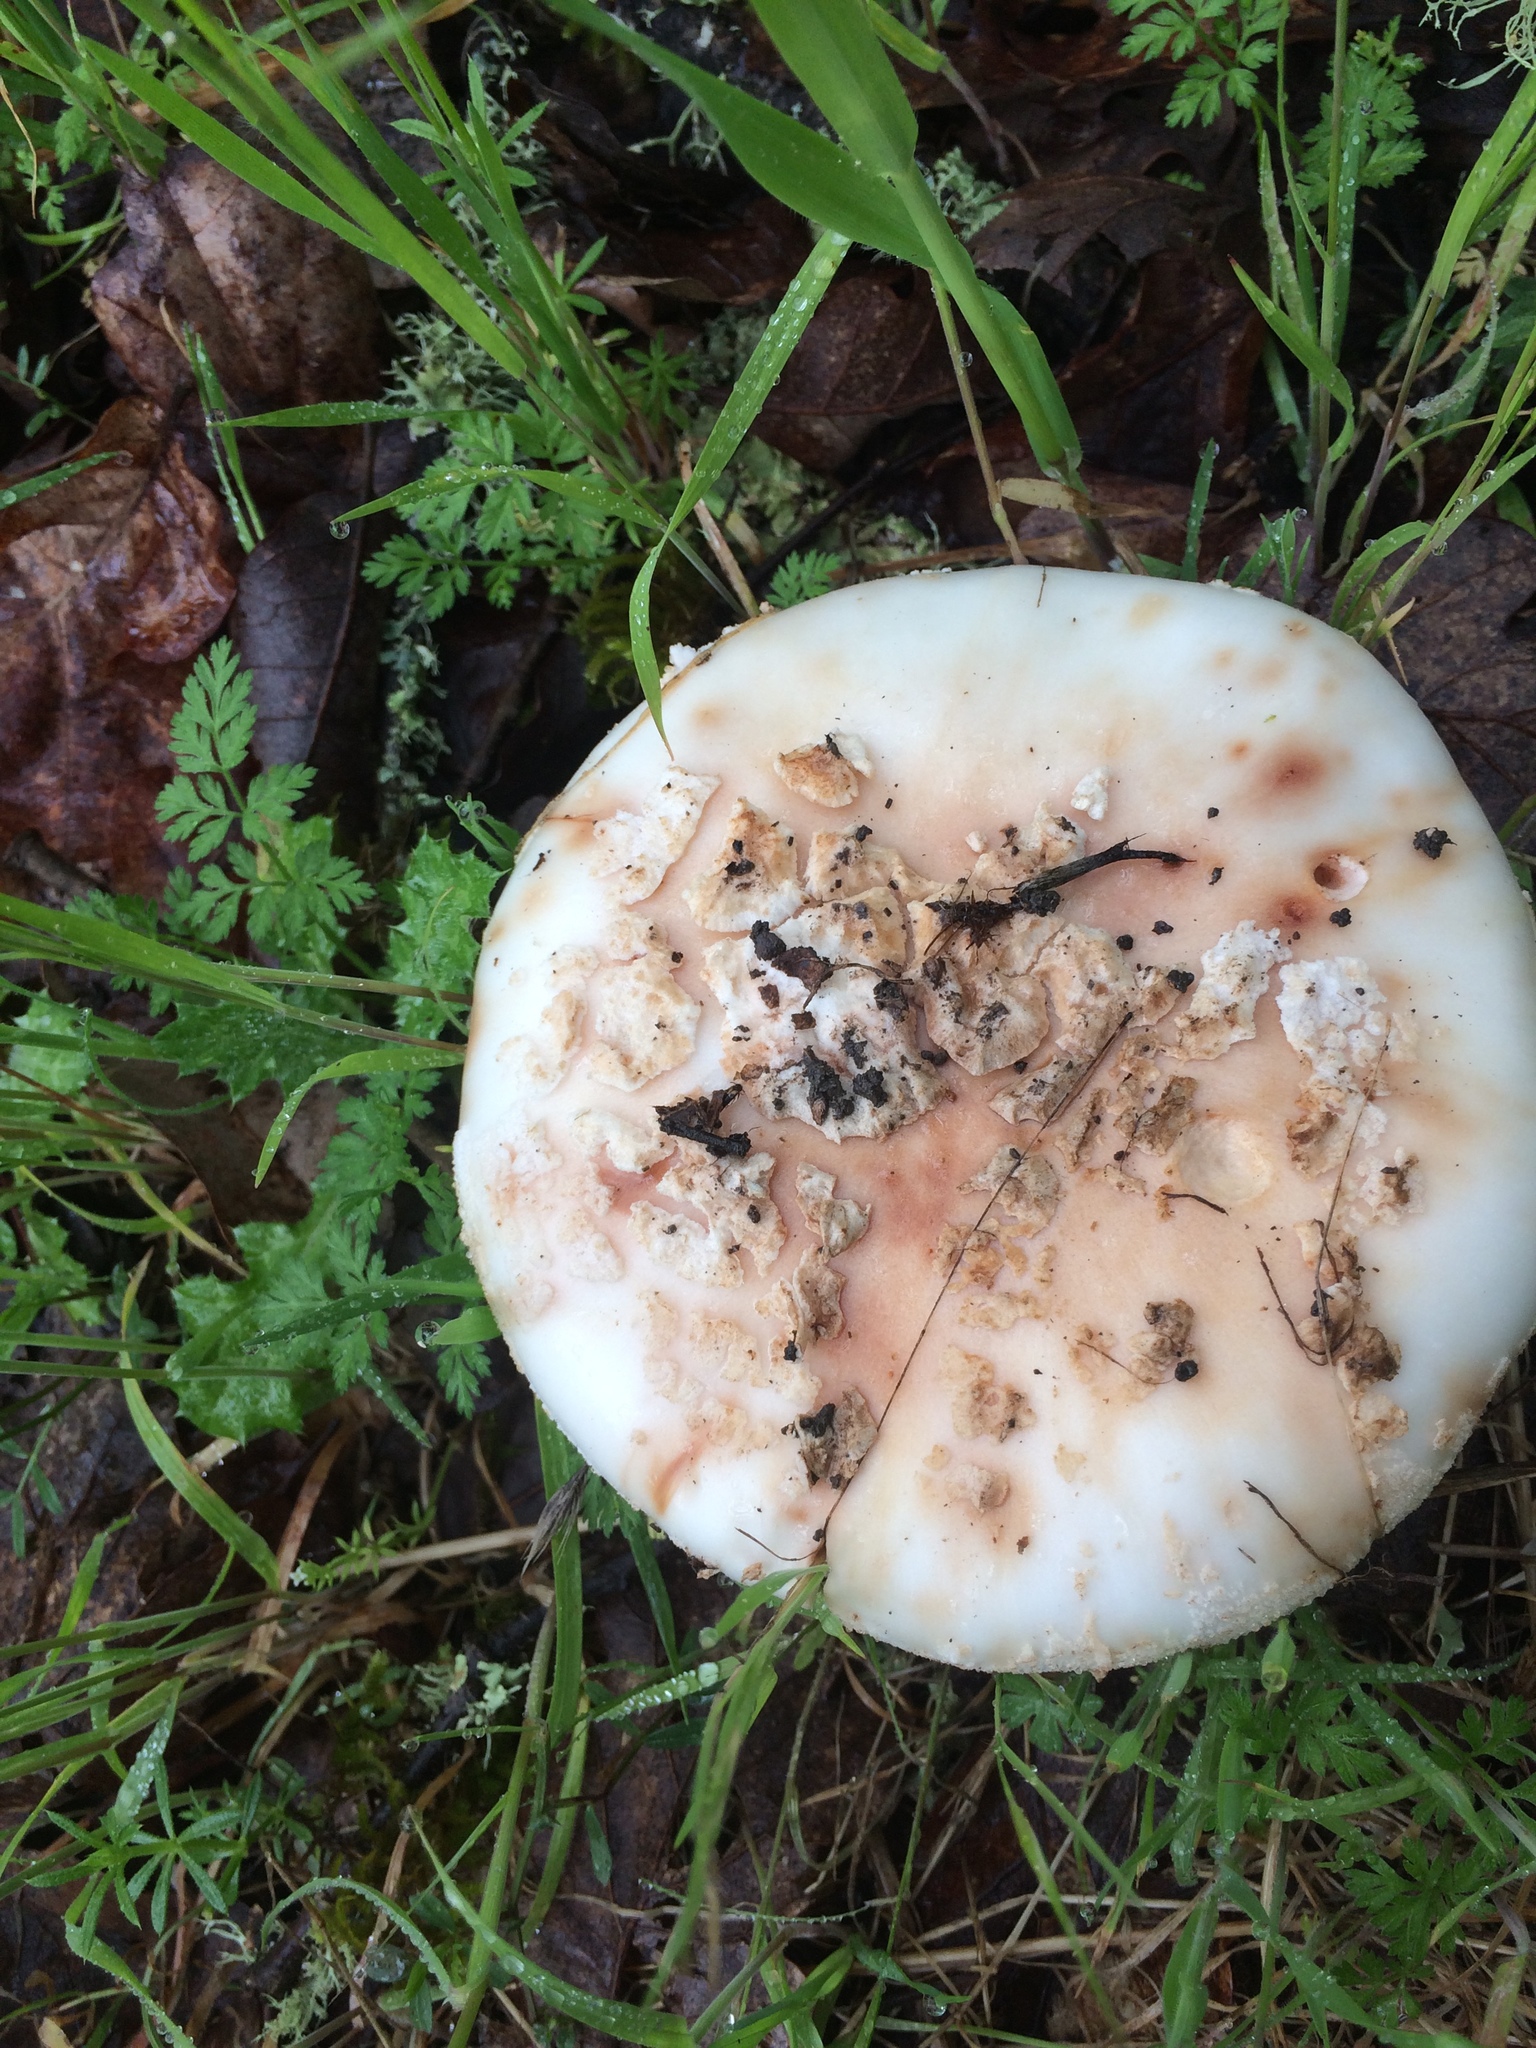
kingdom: Fungi
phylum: Basidiomycota
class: Agaricomycetes
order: Agaricales
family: Amanitaceae
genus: Amanita
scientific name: Amanita novinupta
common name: Blushing bride
